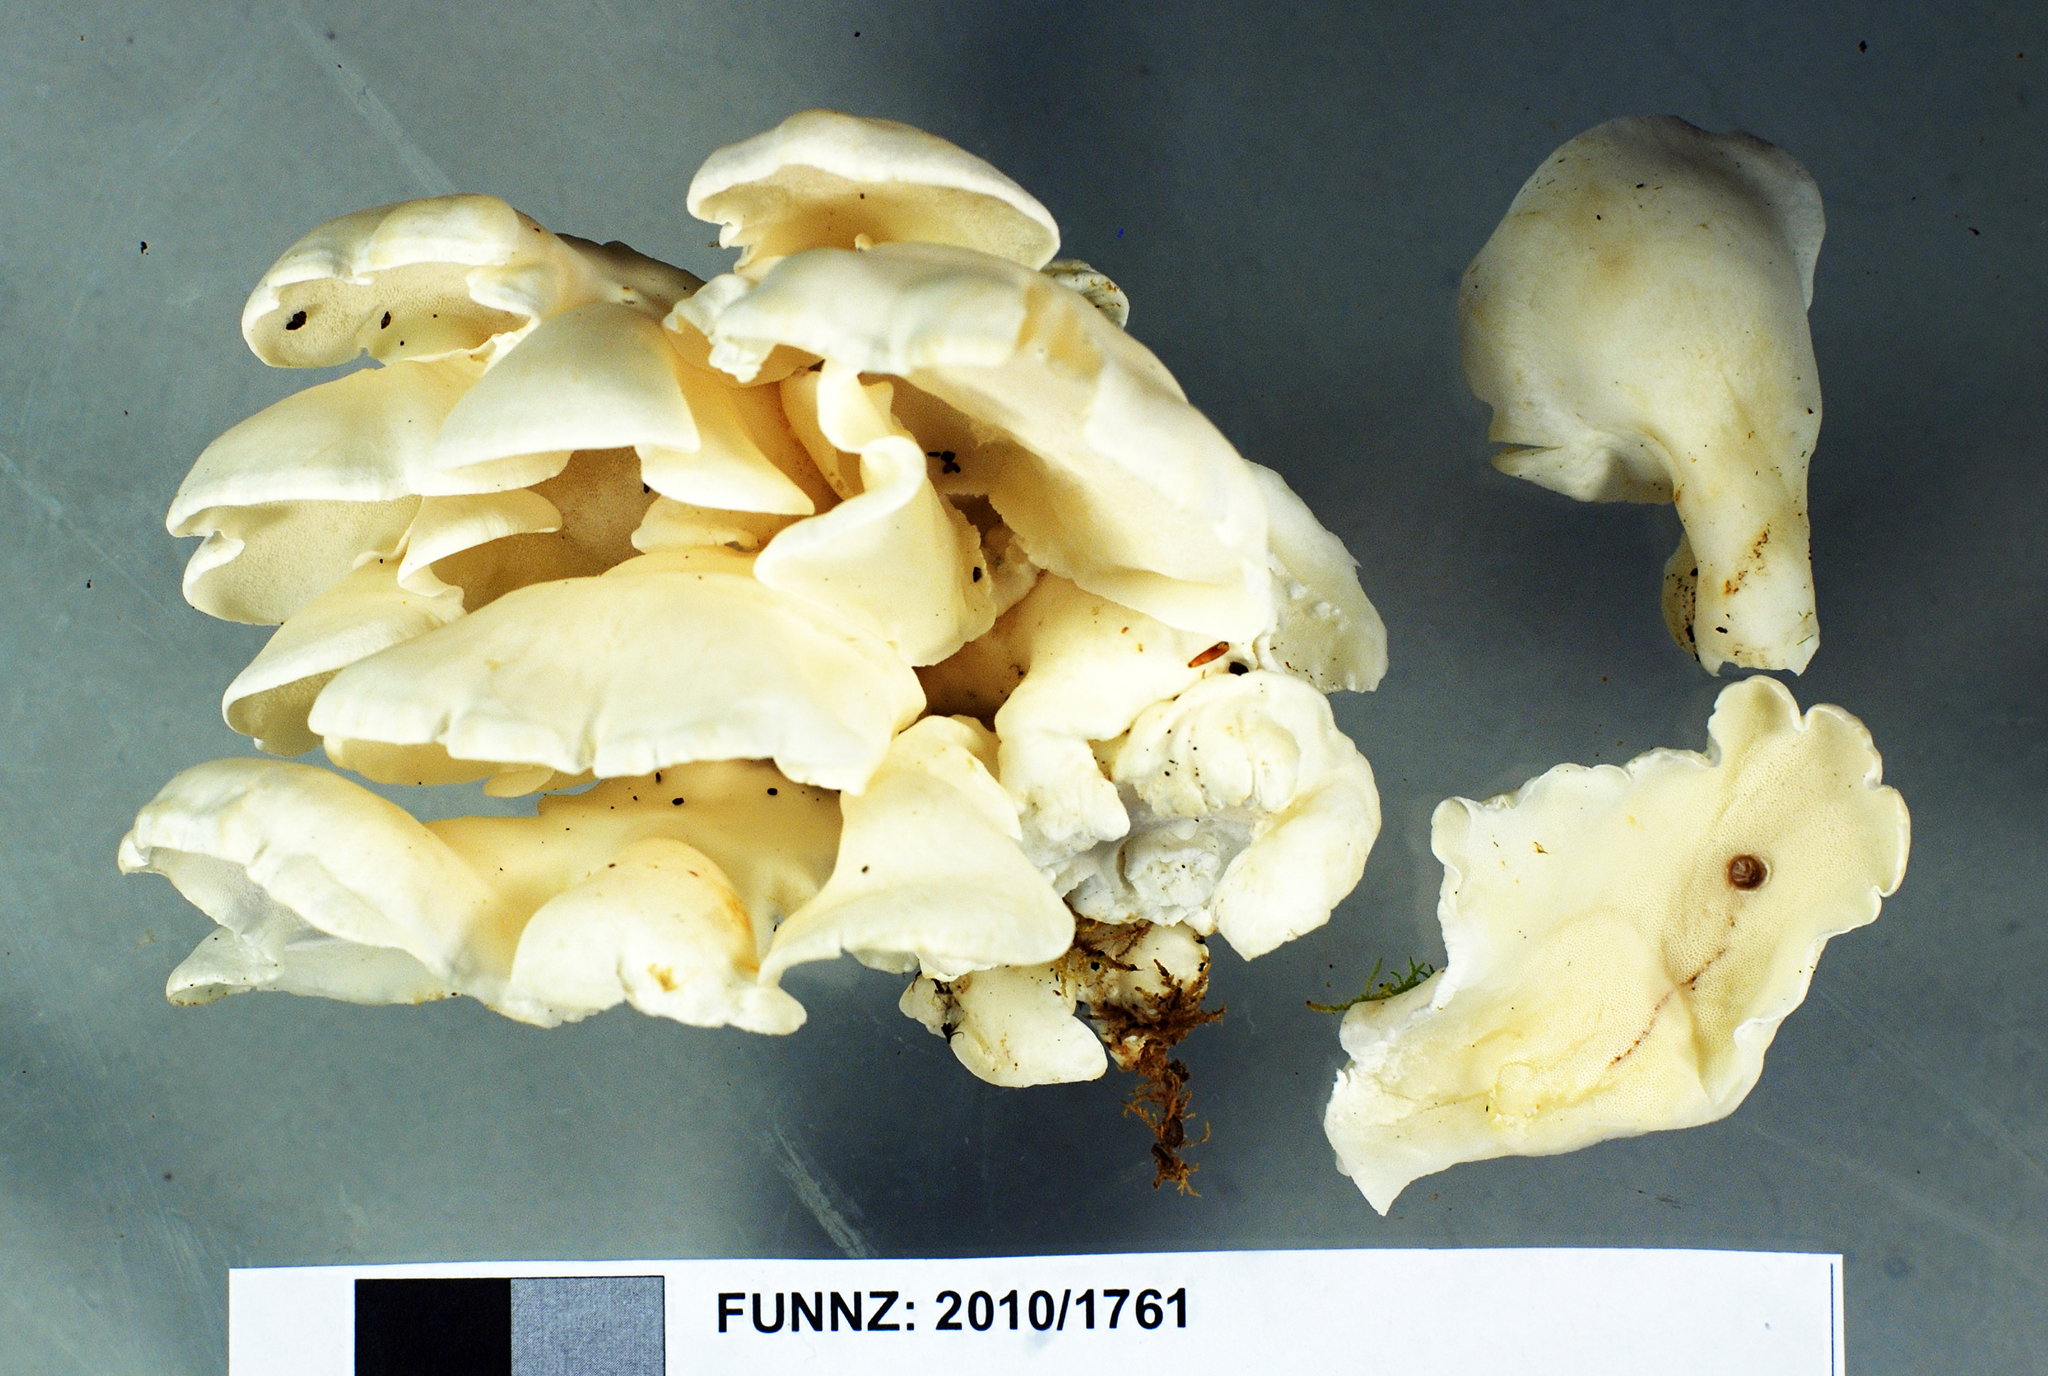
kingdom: Fungi
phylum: Basidiomycota
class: Agaricomycetes
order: Polyporales
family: Dacryobolaceae
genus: Postia
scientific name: Postia tephroleuca
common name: Greyling bracket
